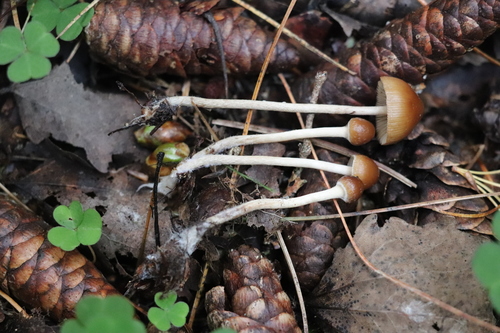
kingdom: Fungi
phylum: Basidiomycota
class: Agaricomycetes
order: Agaricales
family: Strophariaceae
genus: Deconica
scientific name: Deconica
